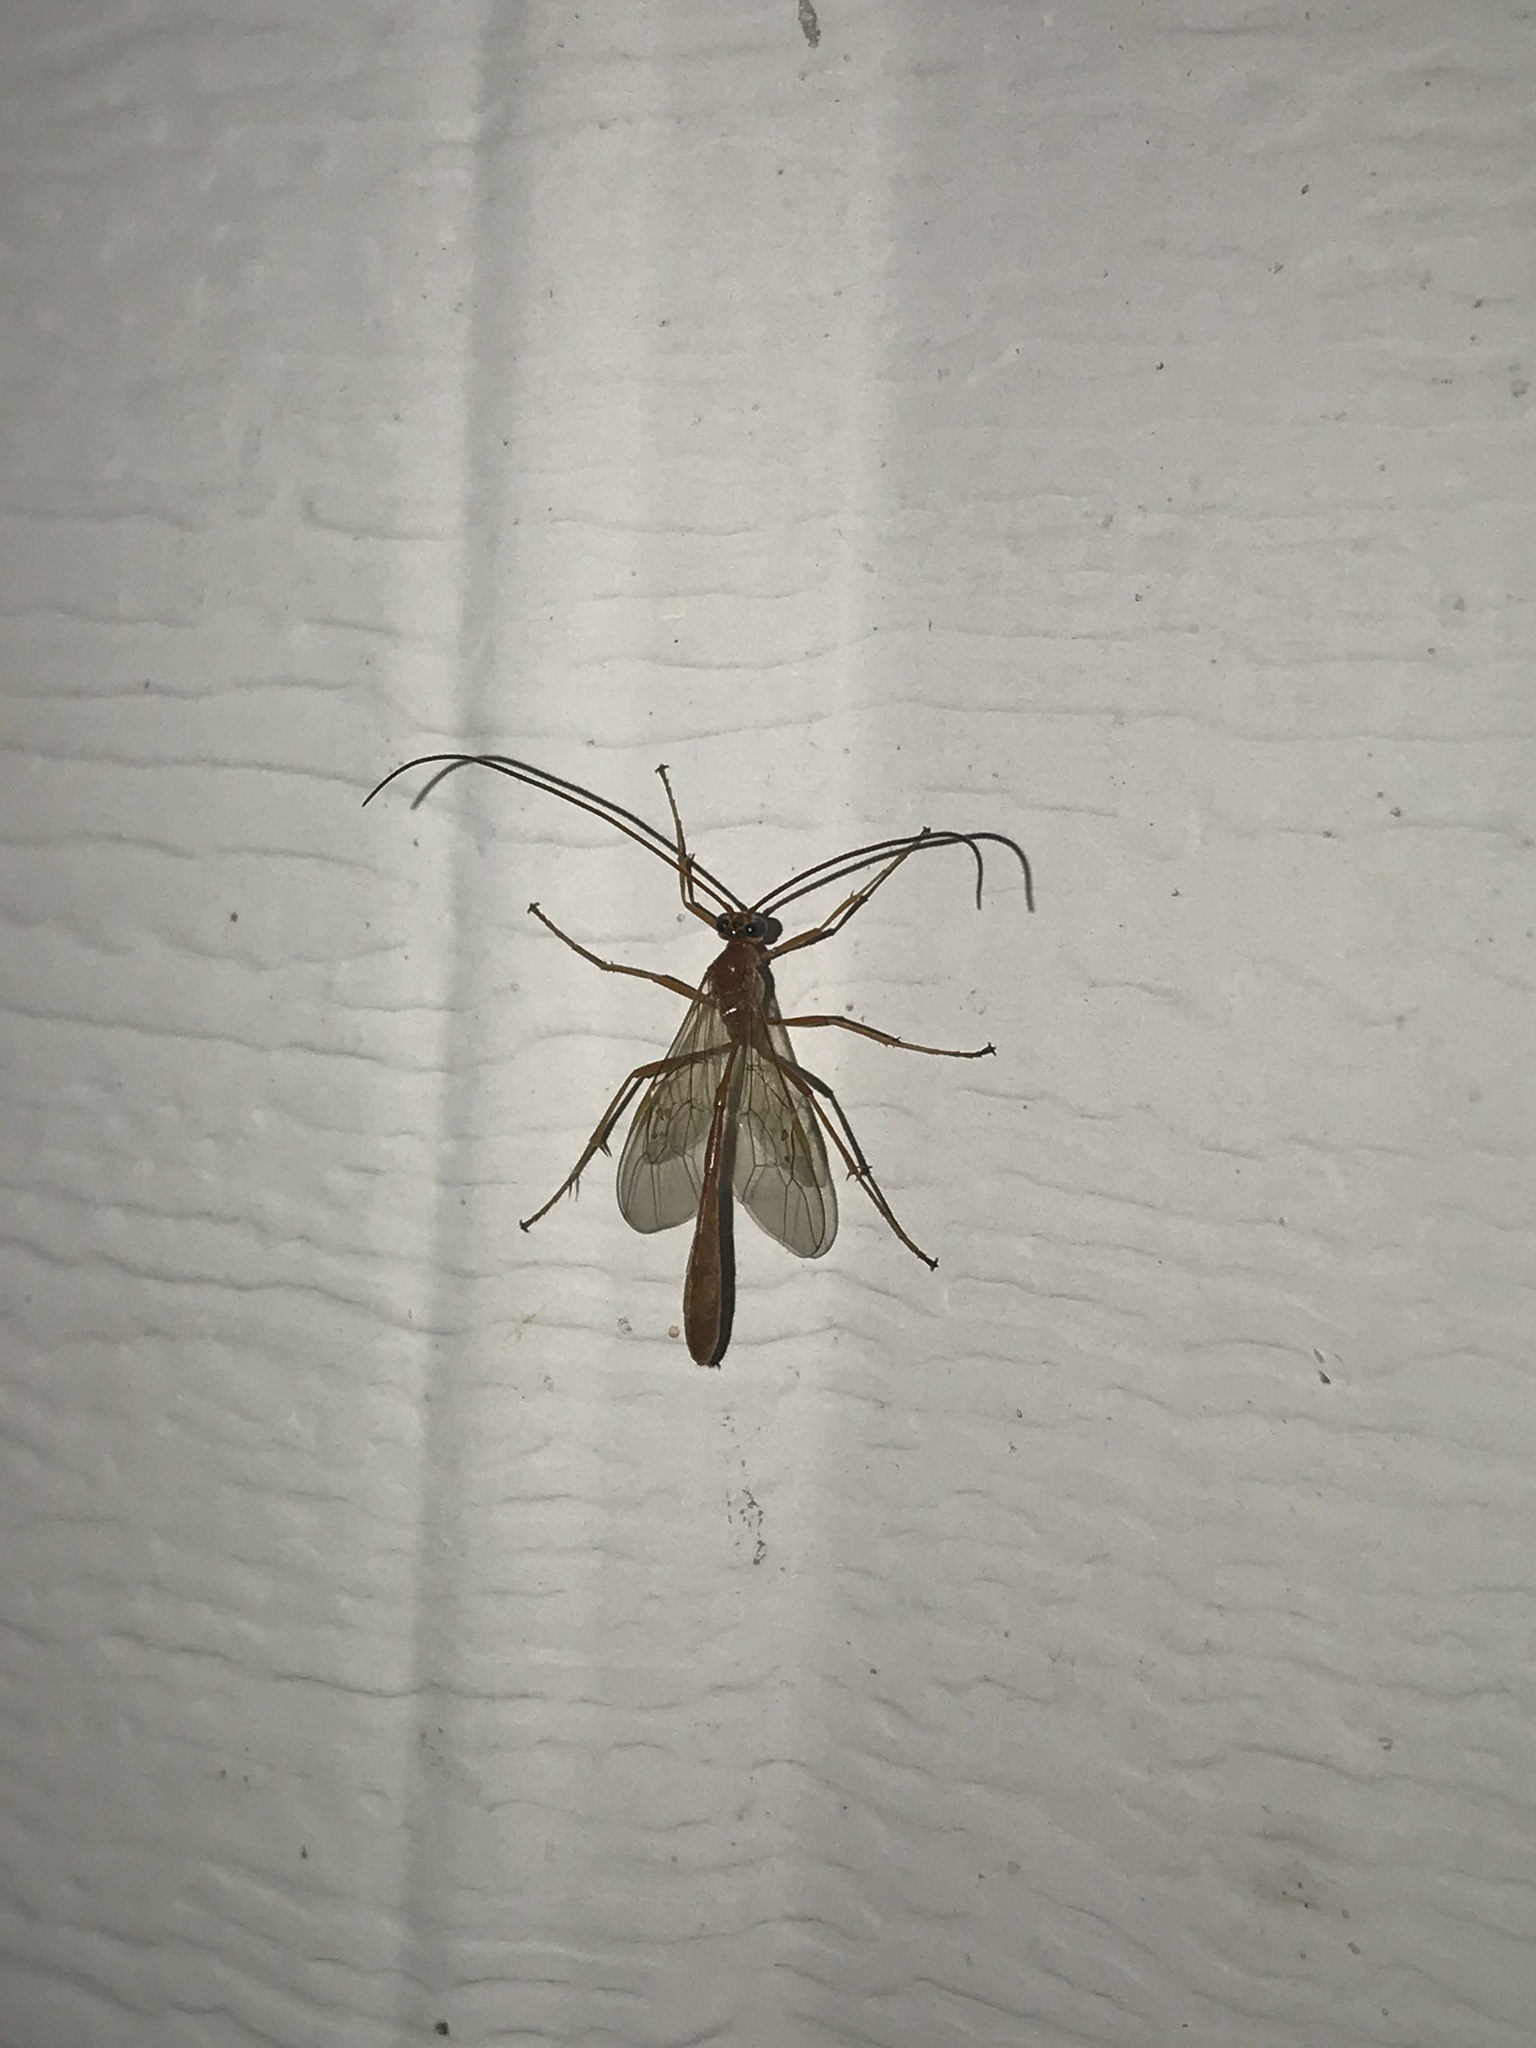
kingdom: Animalia
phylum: Arthropoda
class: Insecta
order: Hymenoptera
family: Ichneumonidae
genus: Enicospilus
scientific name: Enicospilus purgatus
